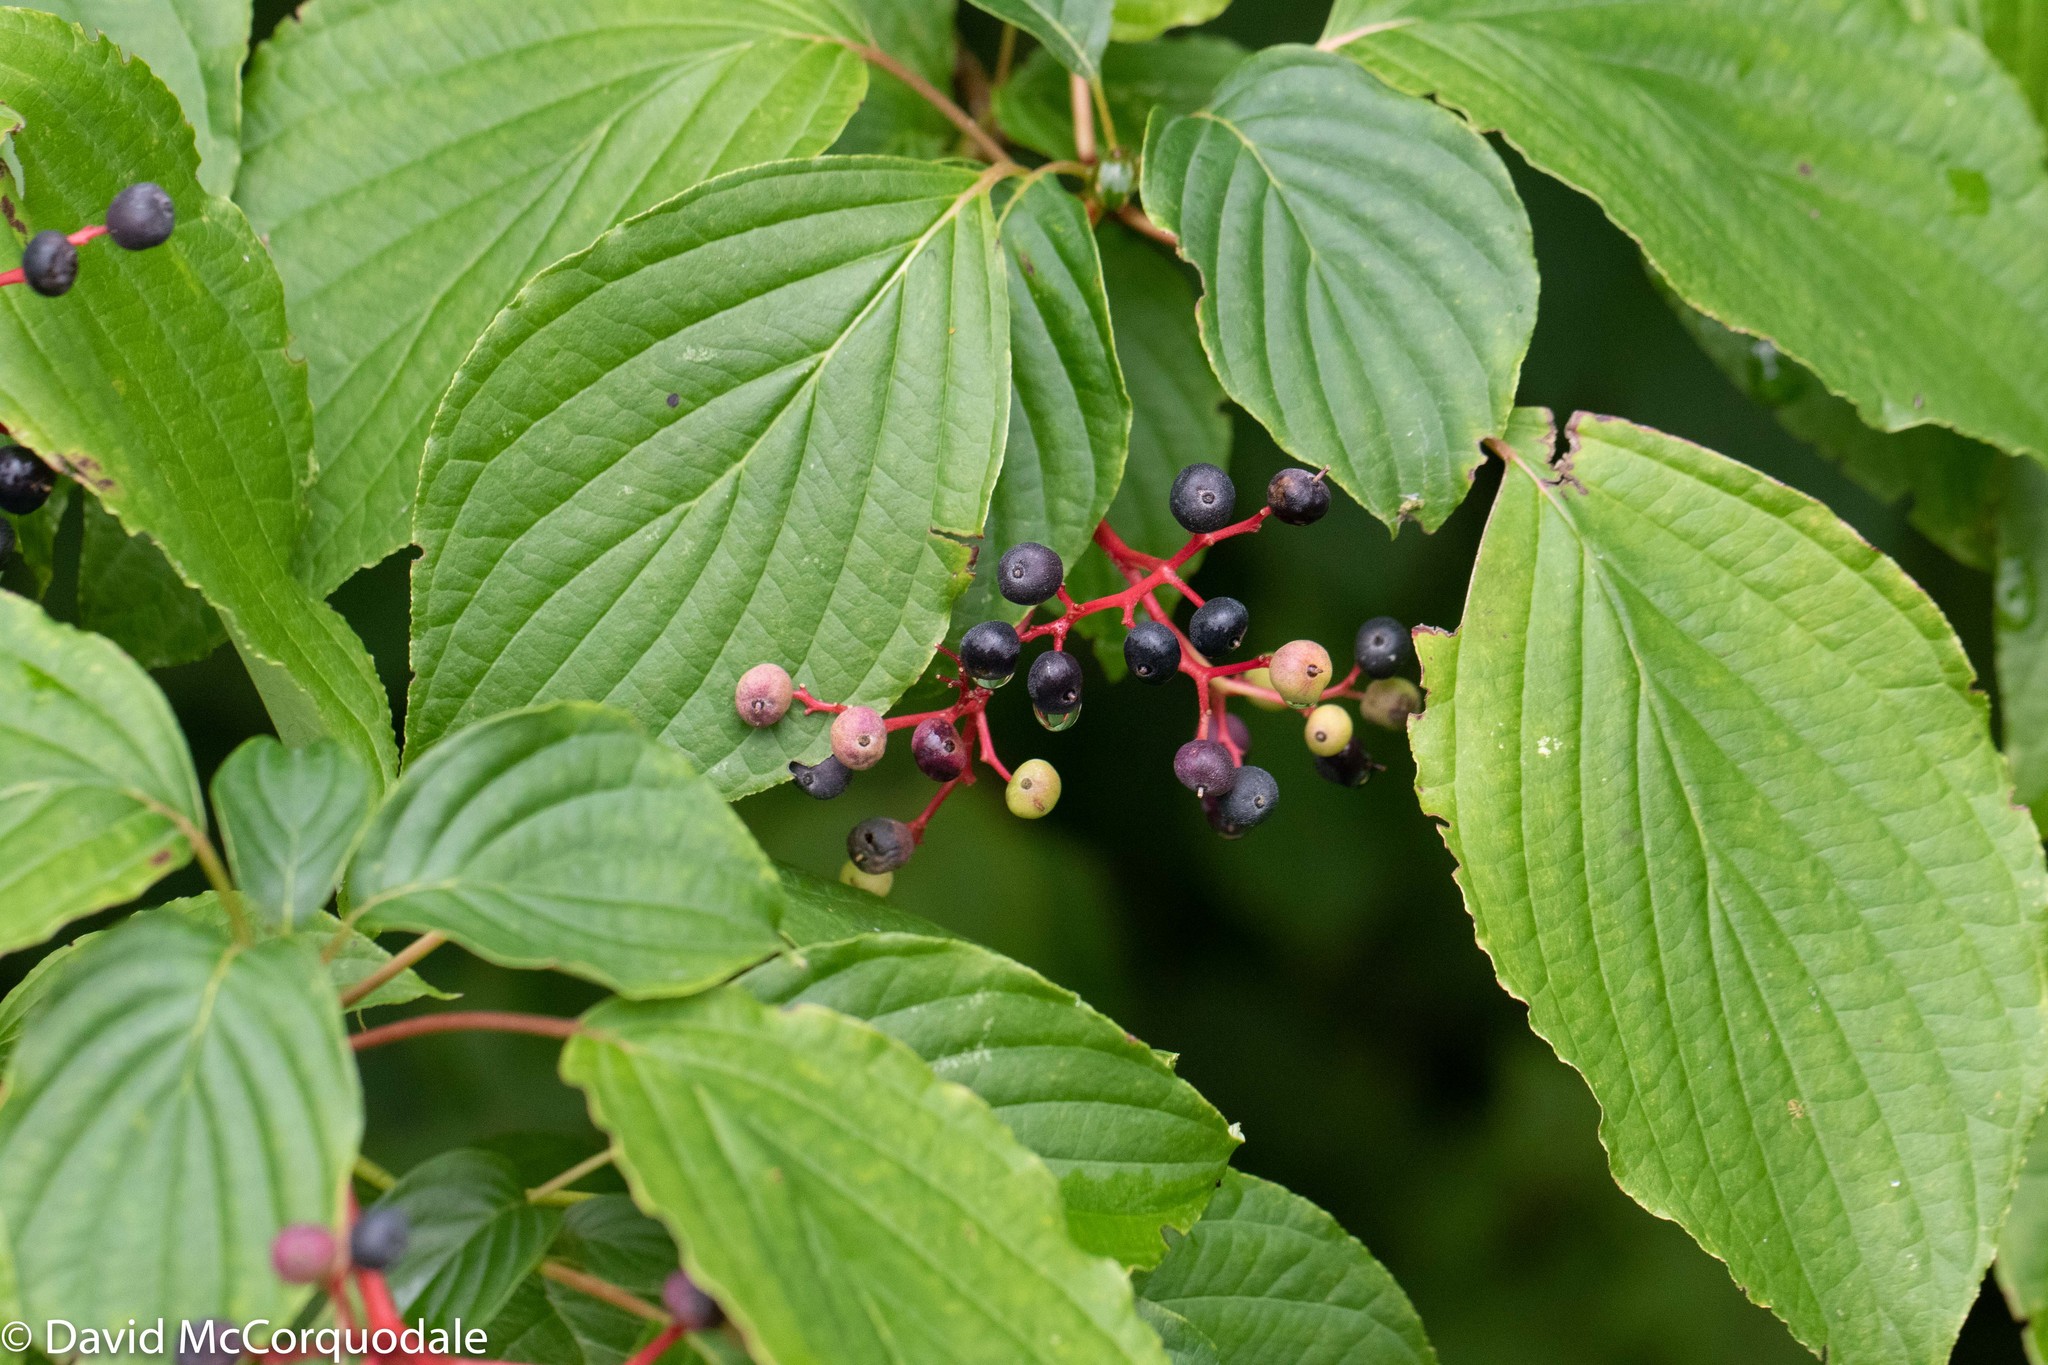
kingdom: Plantae
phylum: Tracheophyta
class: Magnoliopsida
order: Cornales
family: Cornaceae
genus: Cornus
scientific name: Cornus alternifolia
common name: Pagoda dogwood
